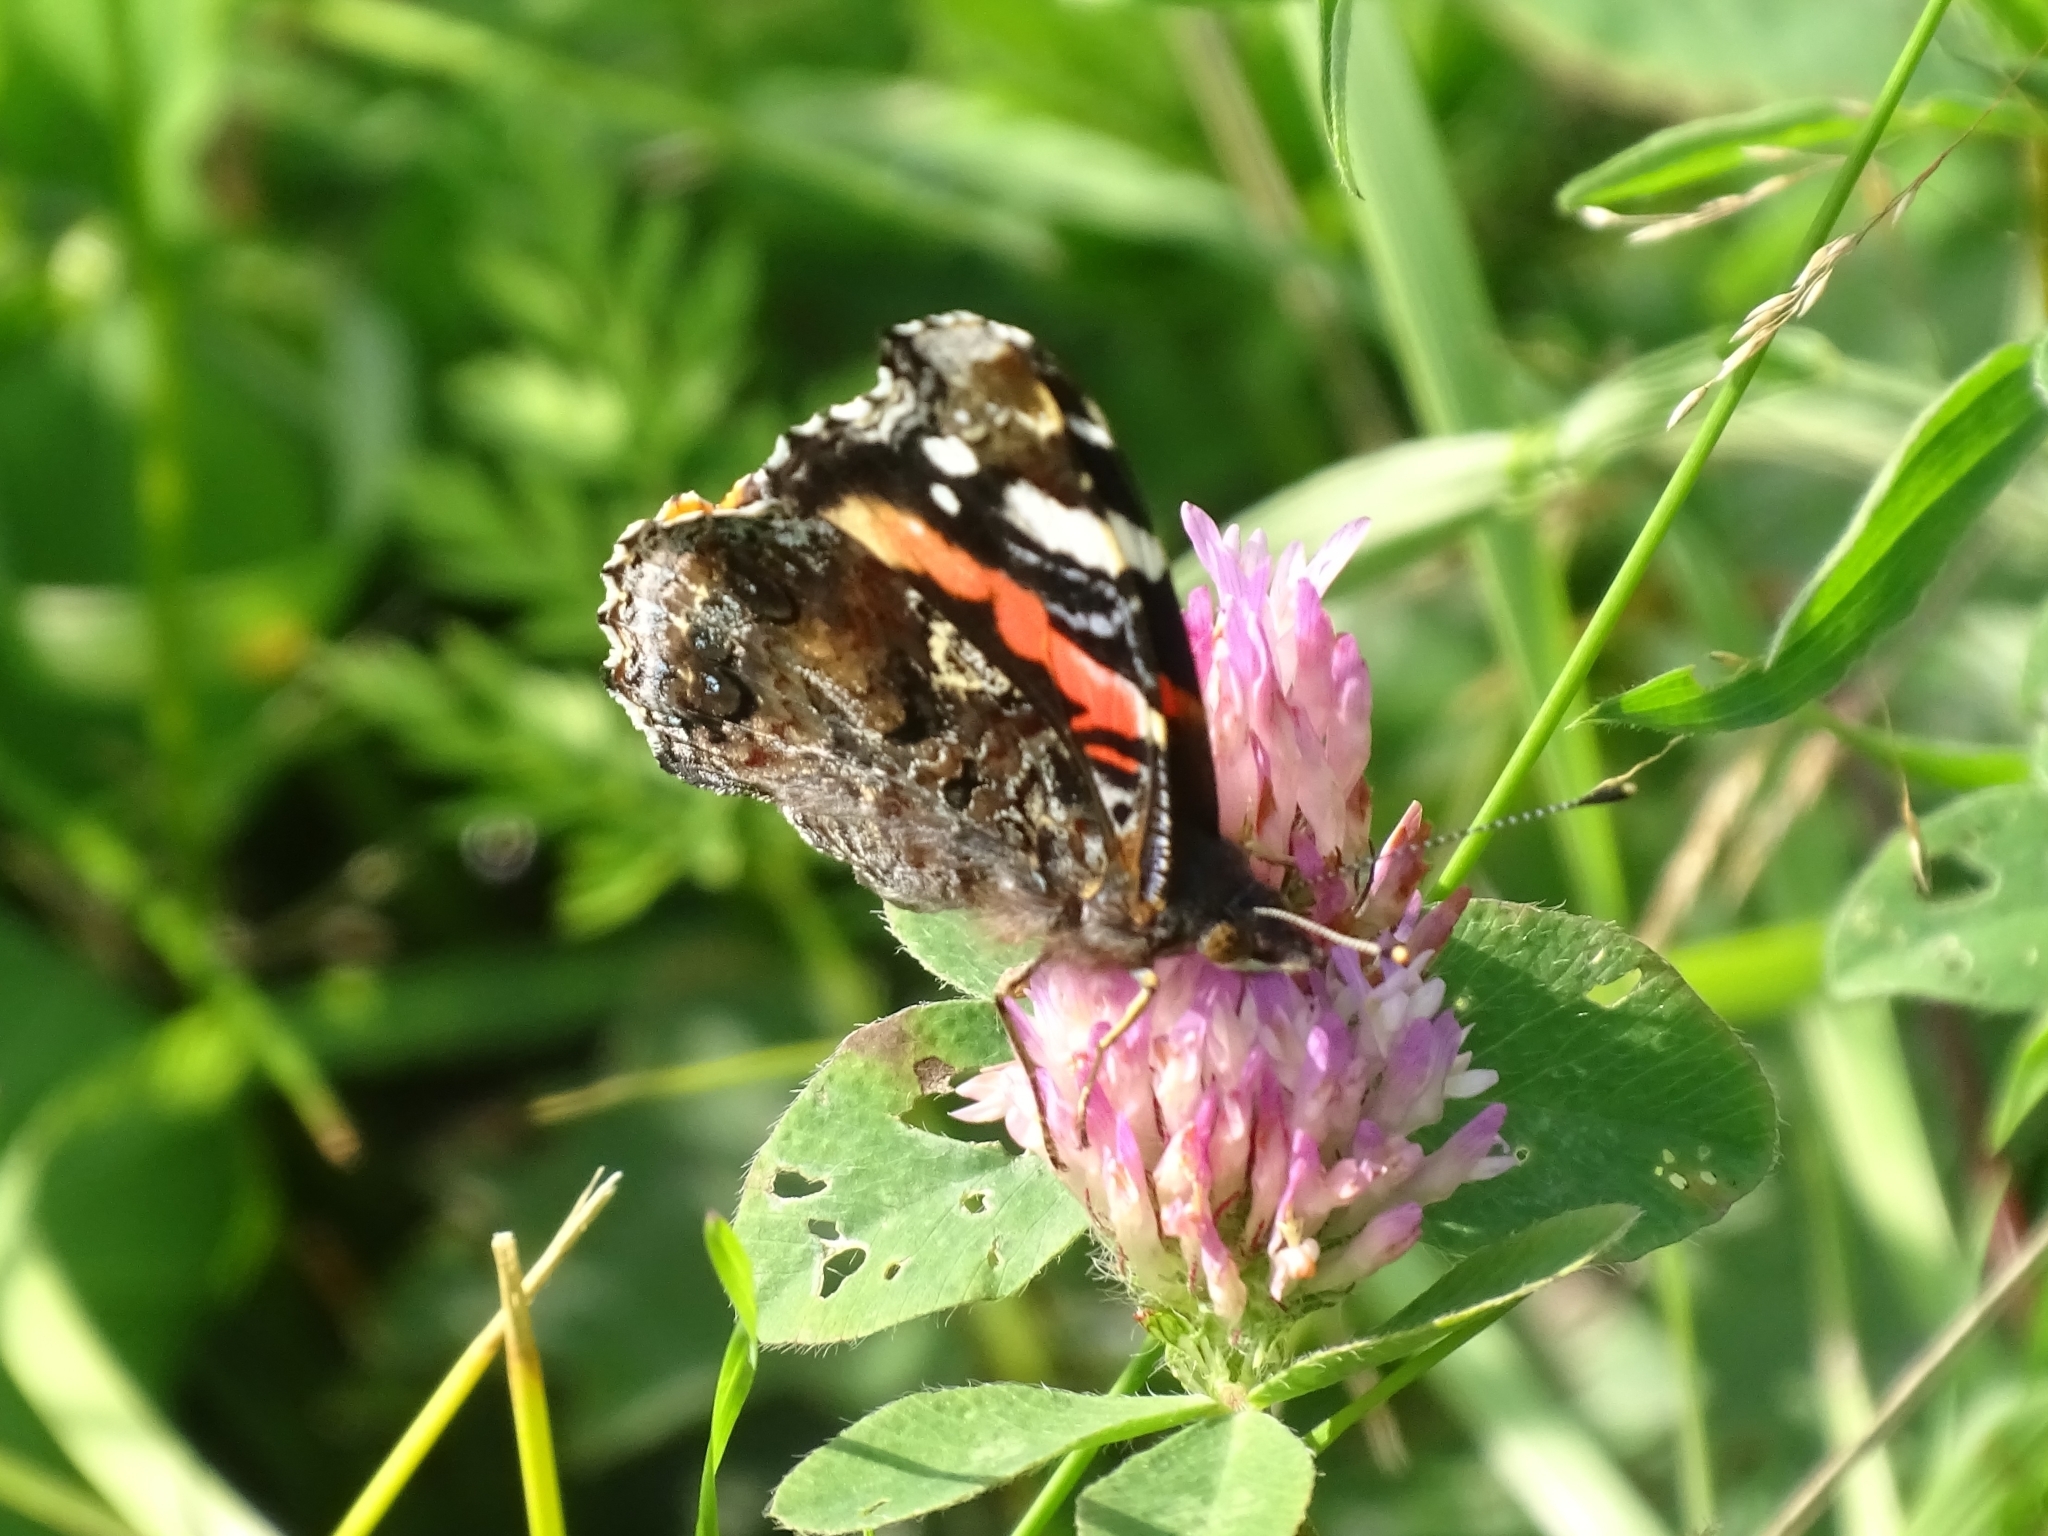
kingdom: Animalia
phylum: Arthropoda
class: Insecta
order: Lepidoptera
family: Nymphalidae
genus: Vanessa
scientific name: Vanessa atalanta
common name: Red admiral
